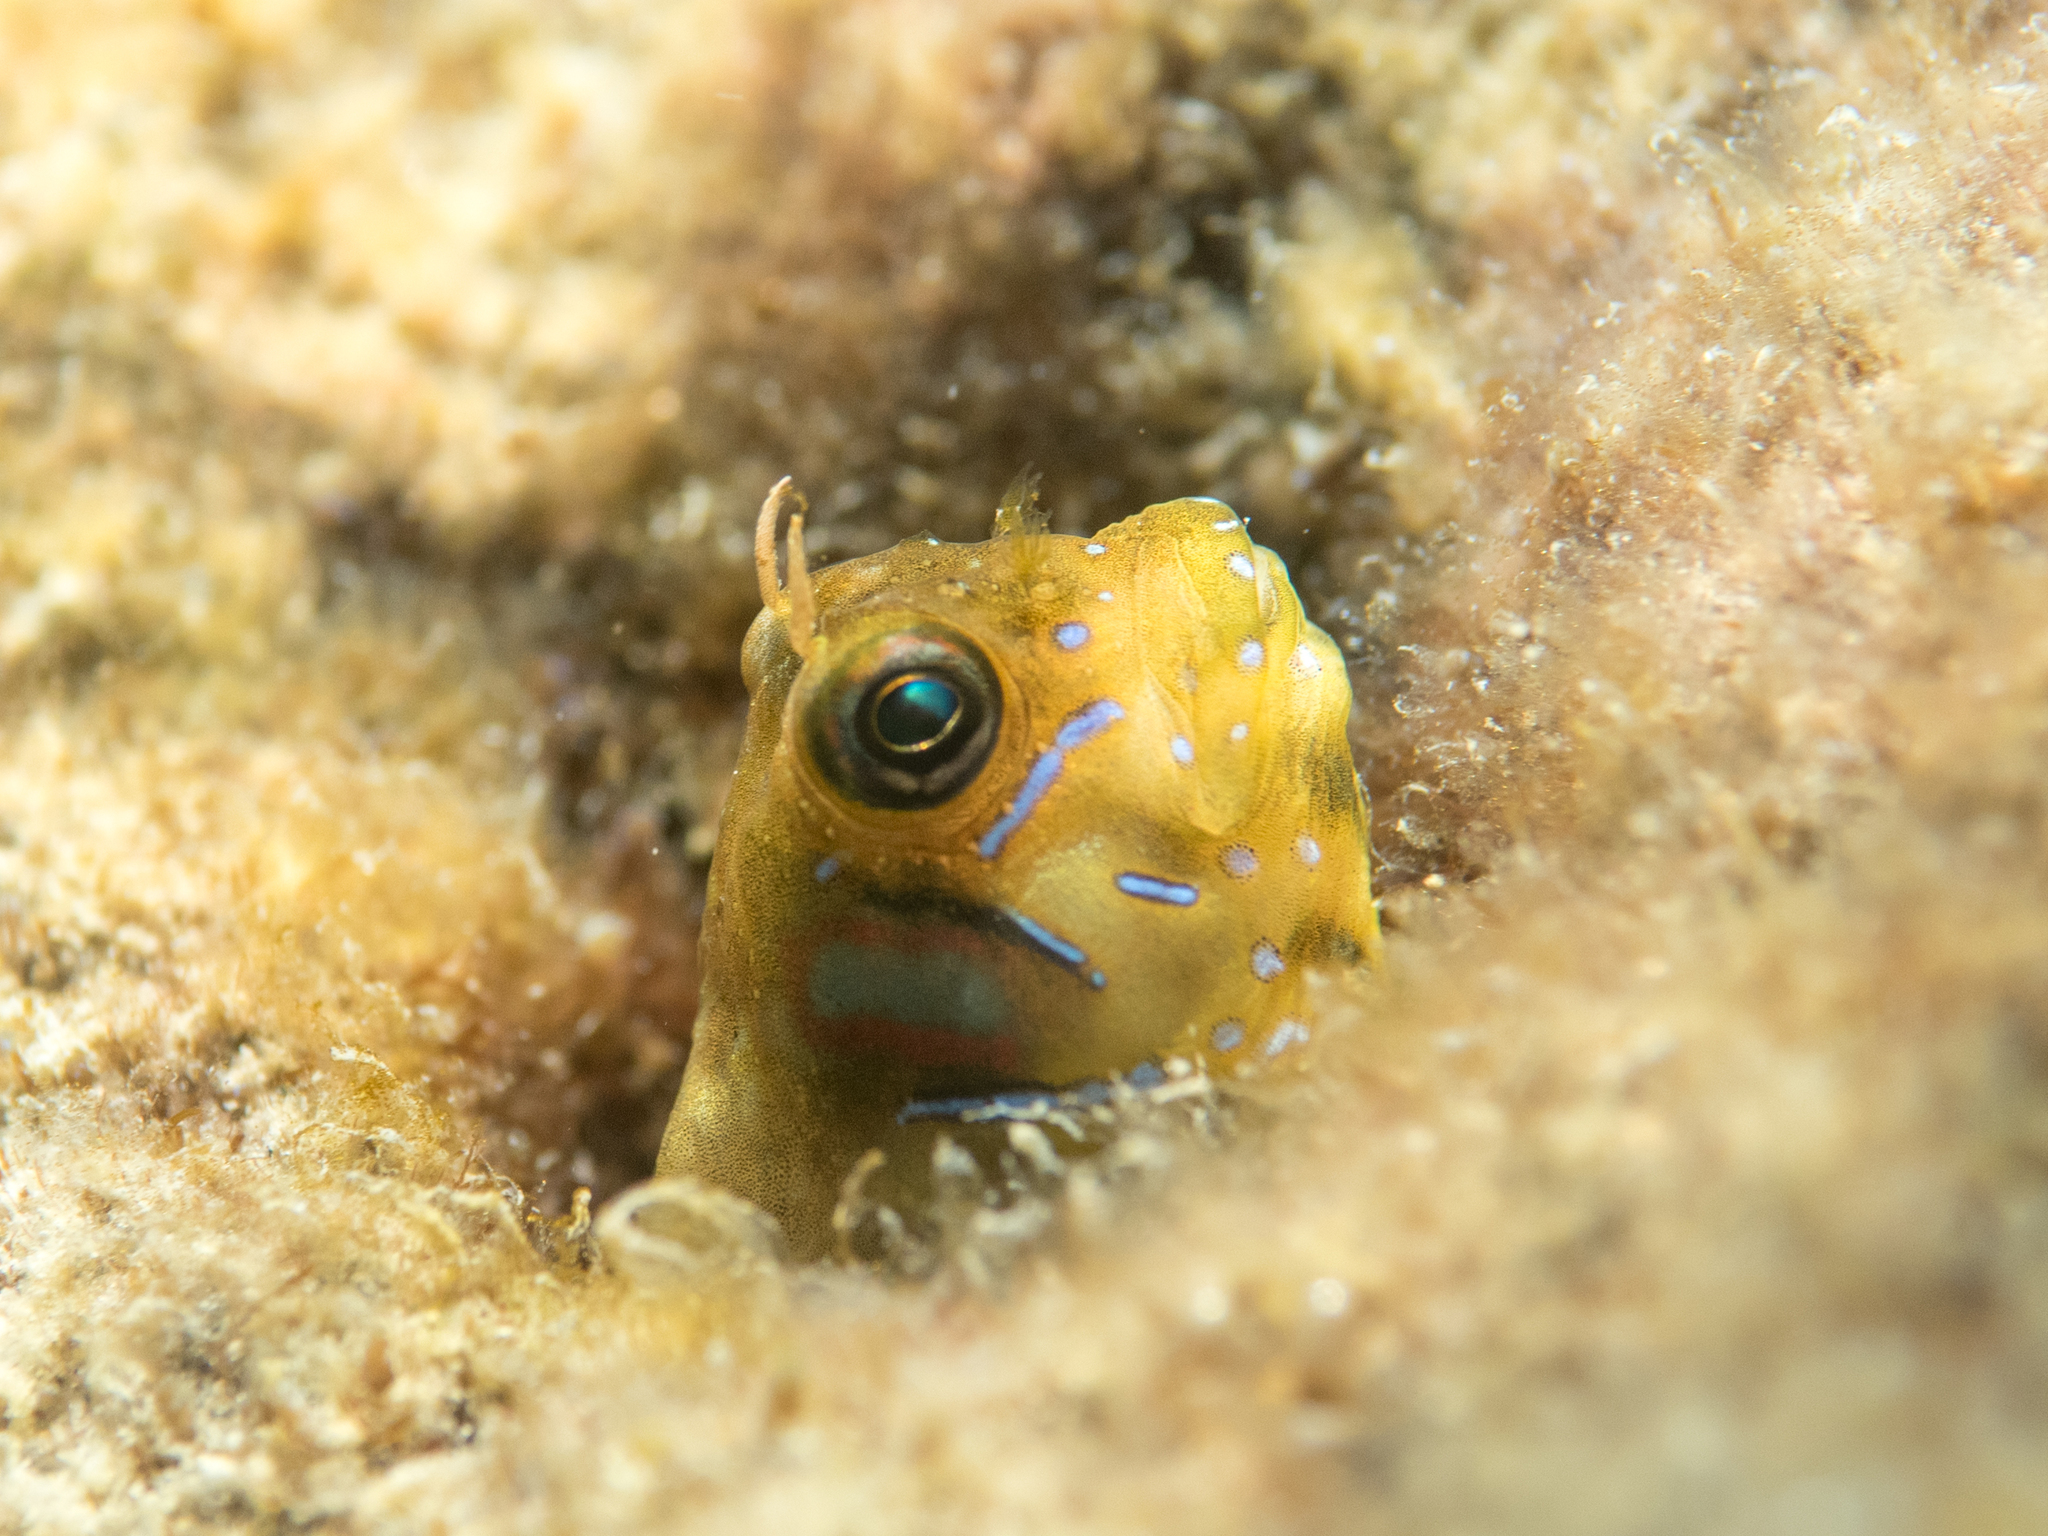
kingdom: Animalia
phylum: Chordata
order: Perciformes
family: Blenniidae
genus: Aidablennius
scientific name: Aidablennius sphynx
